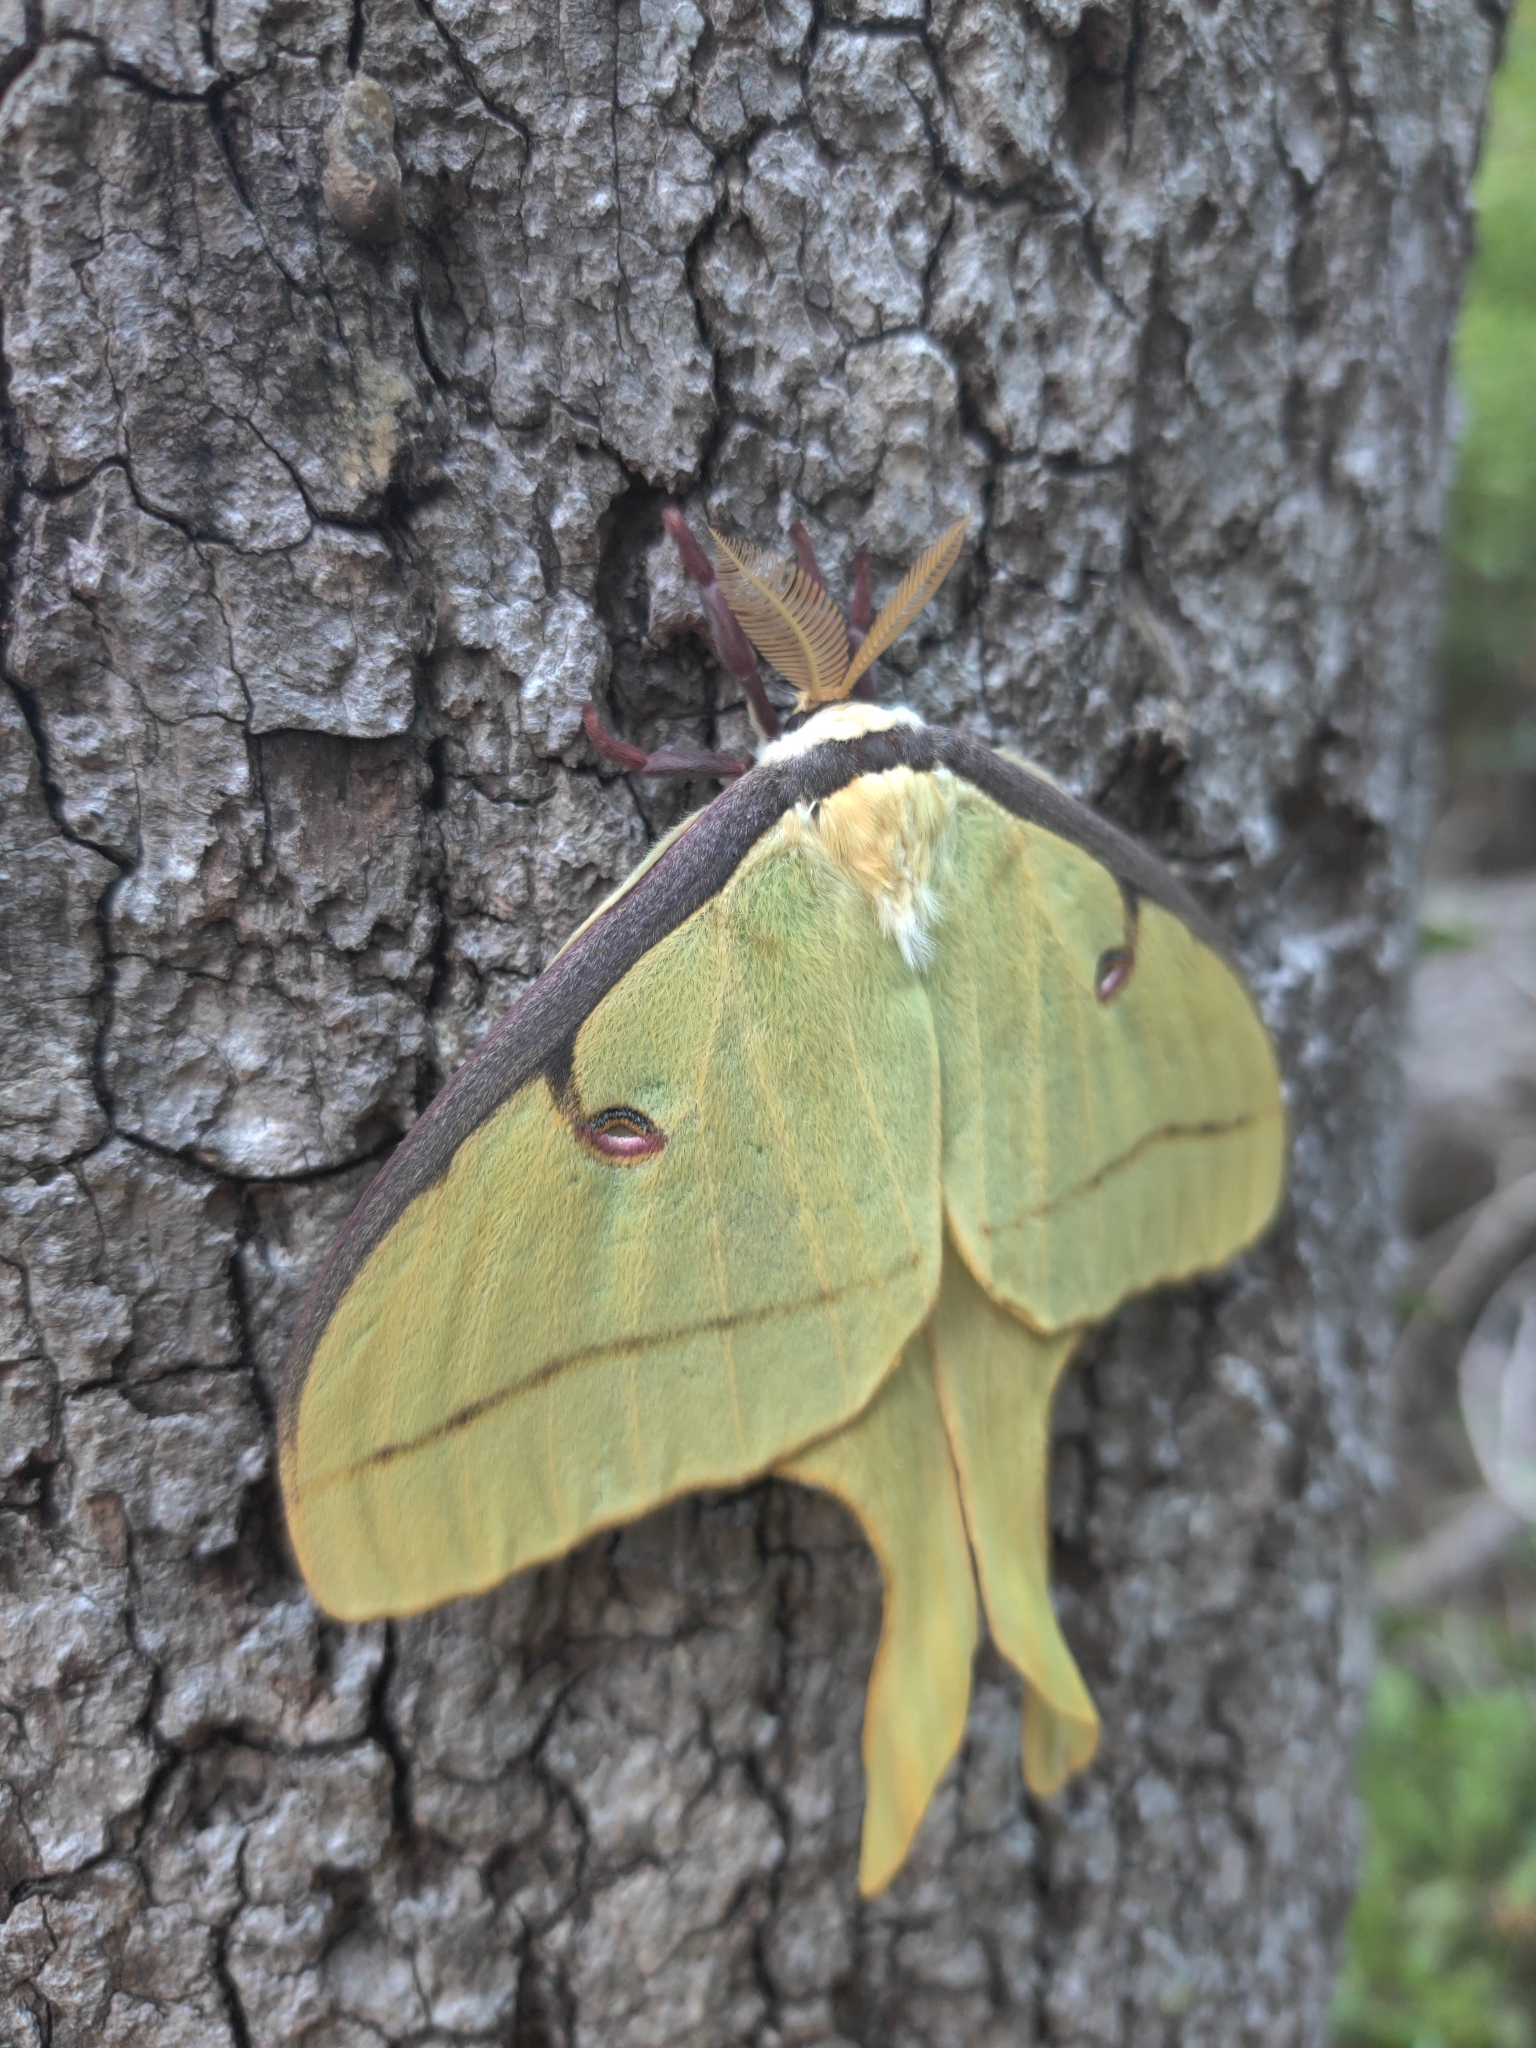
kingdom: Animalia
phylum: Arthropoda
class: Insecta
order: Lepidoptera
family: Saturniidae
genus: Actias
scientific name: Actias luna
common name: Luna moth
